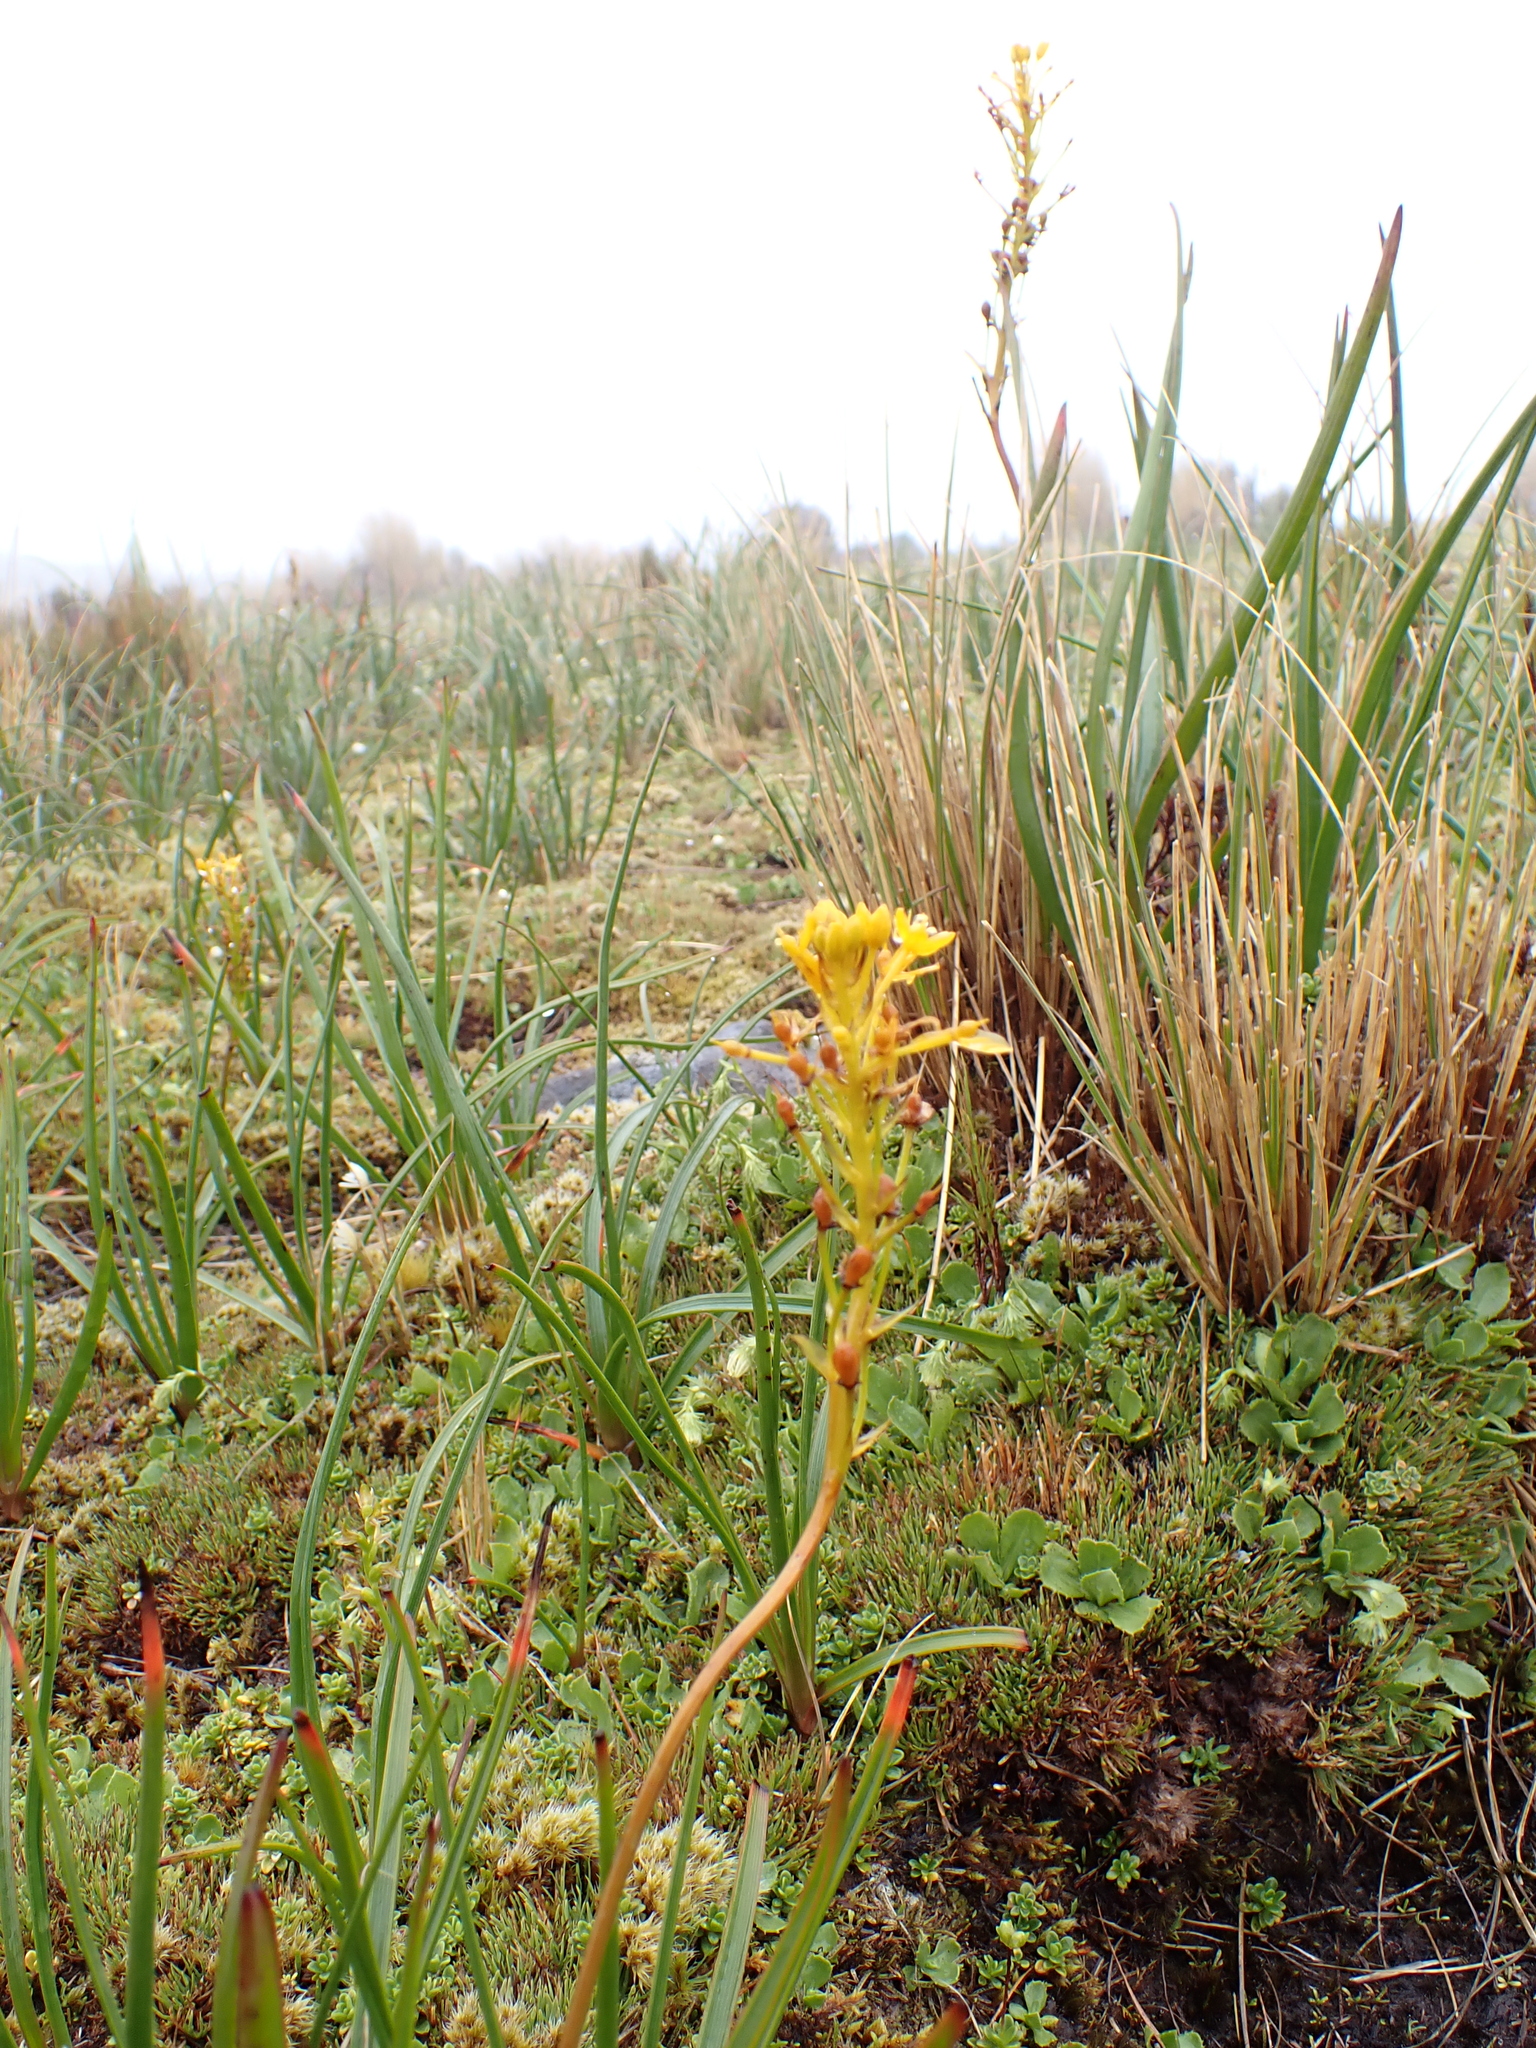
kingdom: Plantae
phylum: Tracheophyta
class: Liliopsida
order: Asparagales
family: Asphodelaceae
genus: Bulbinella
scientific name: Bulbinella hookeri
